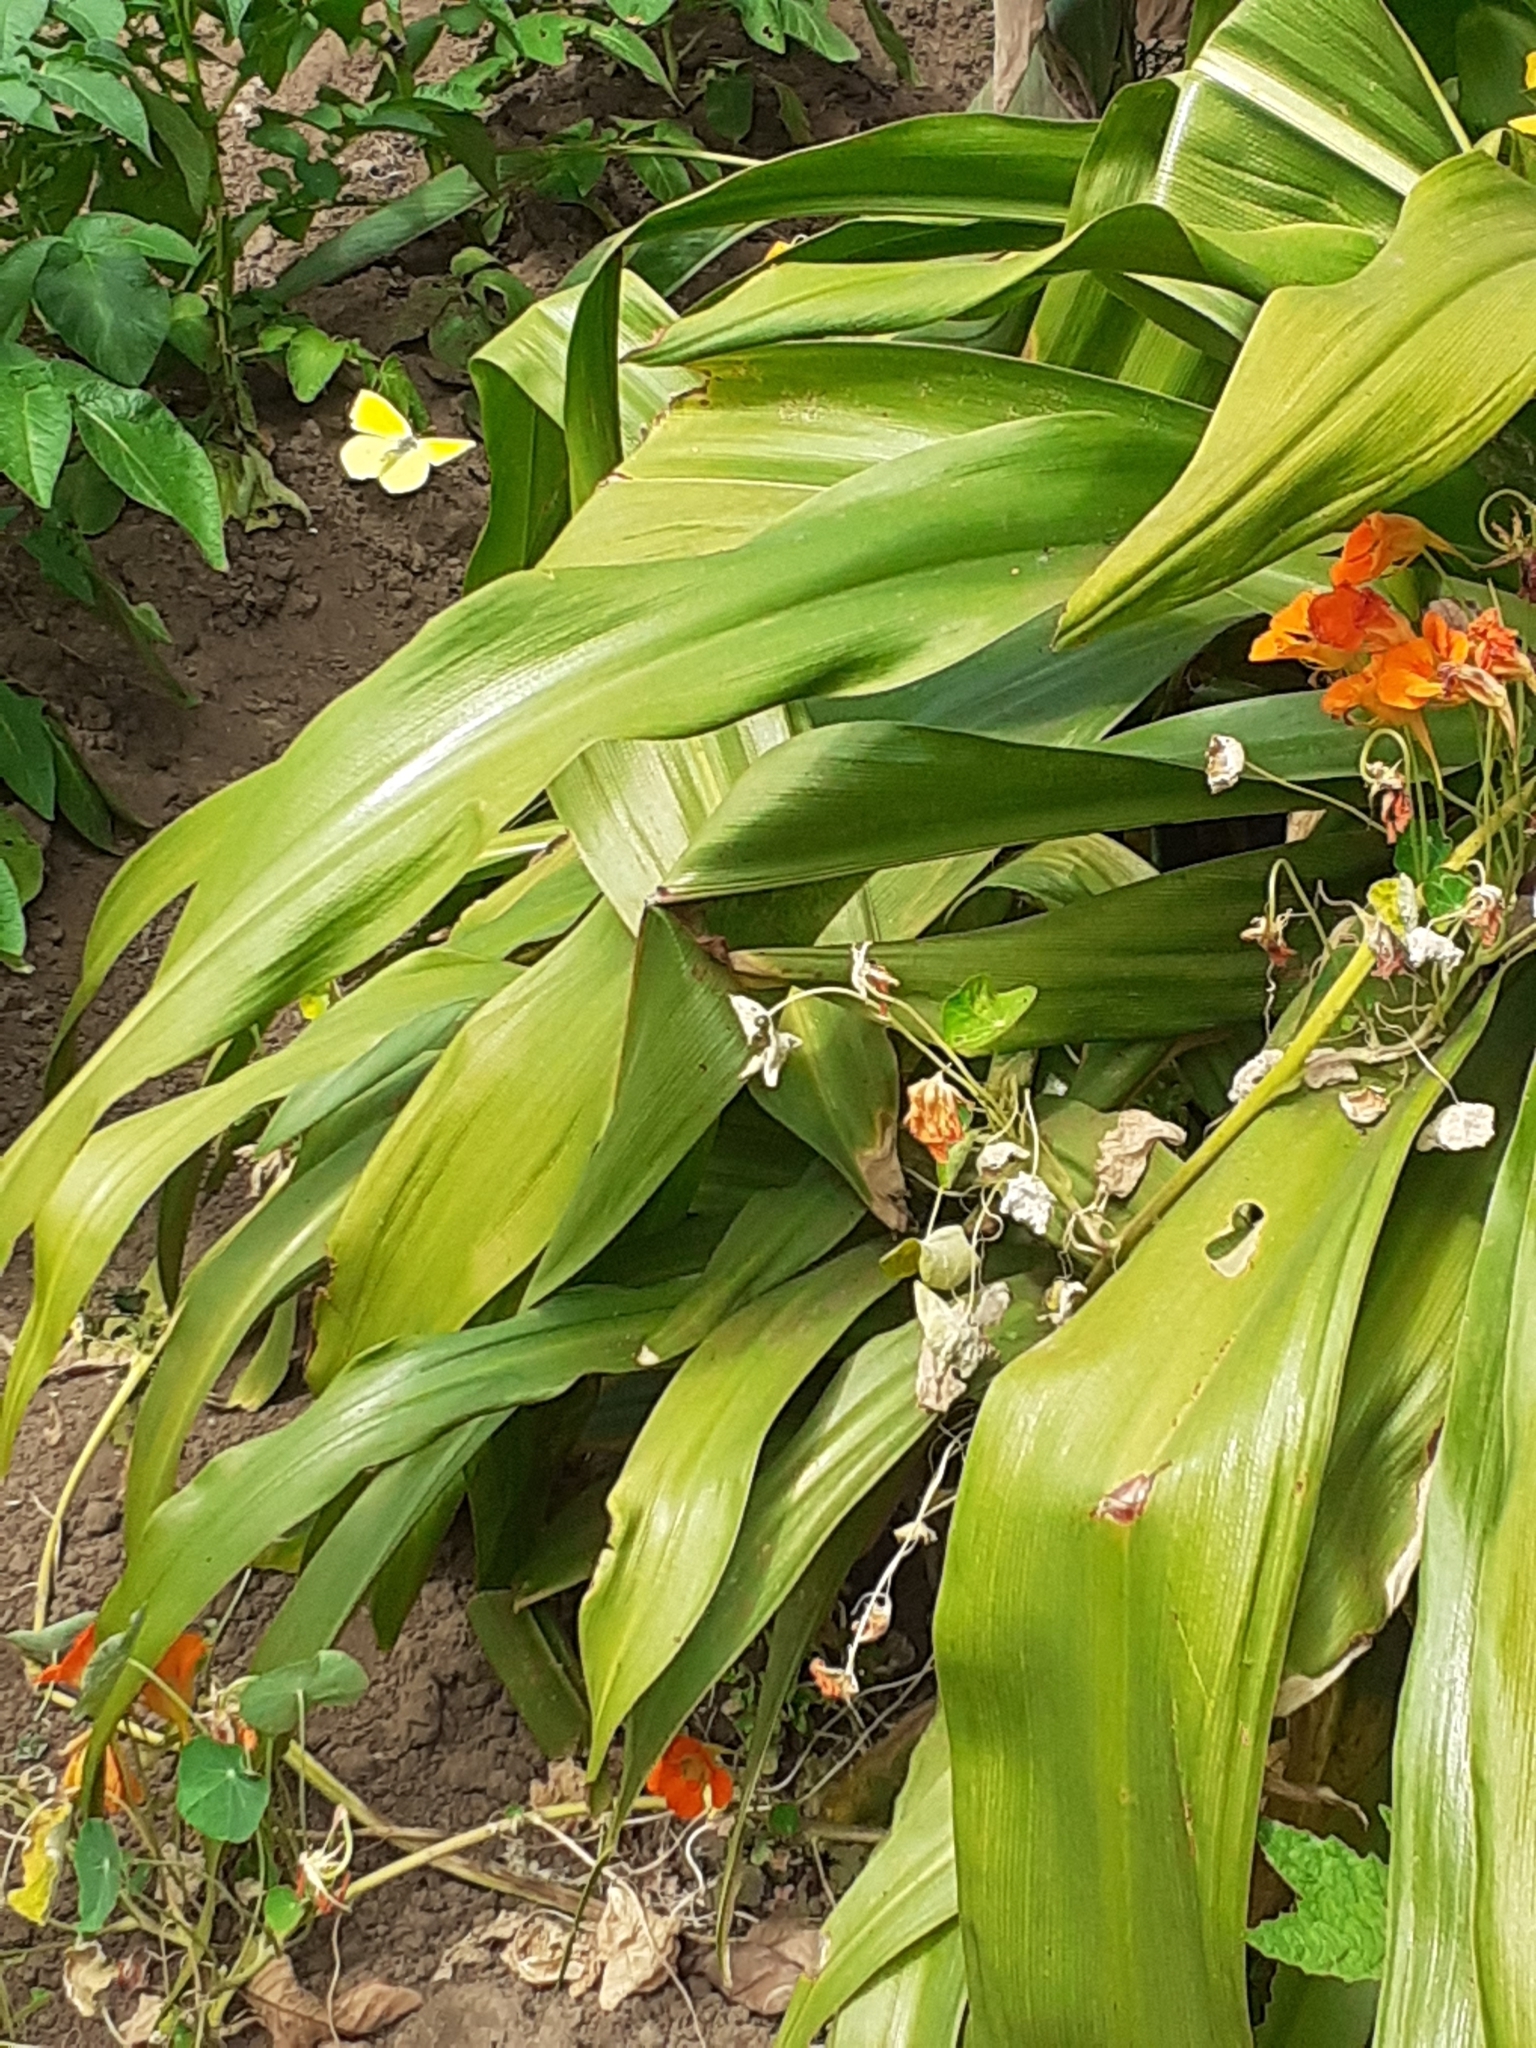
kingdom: Animalia
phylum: Arthropoda
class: Insecta
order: Lepidoptera
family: Pieridae
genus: Gonepteryx
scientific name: Gonepteryx cleobule
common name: Canary brimstone
